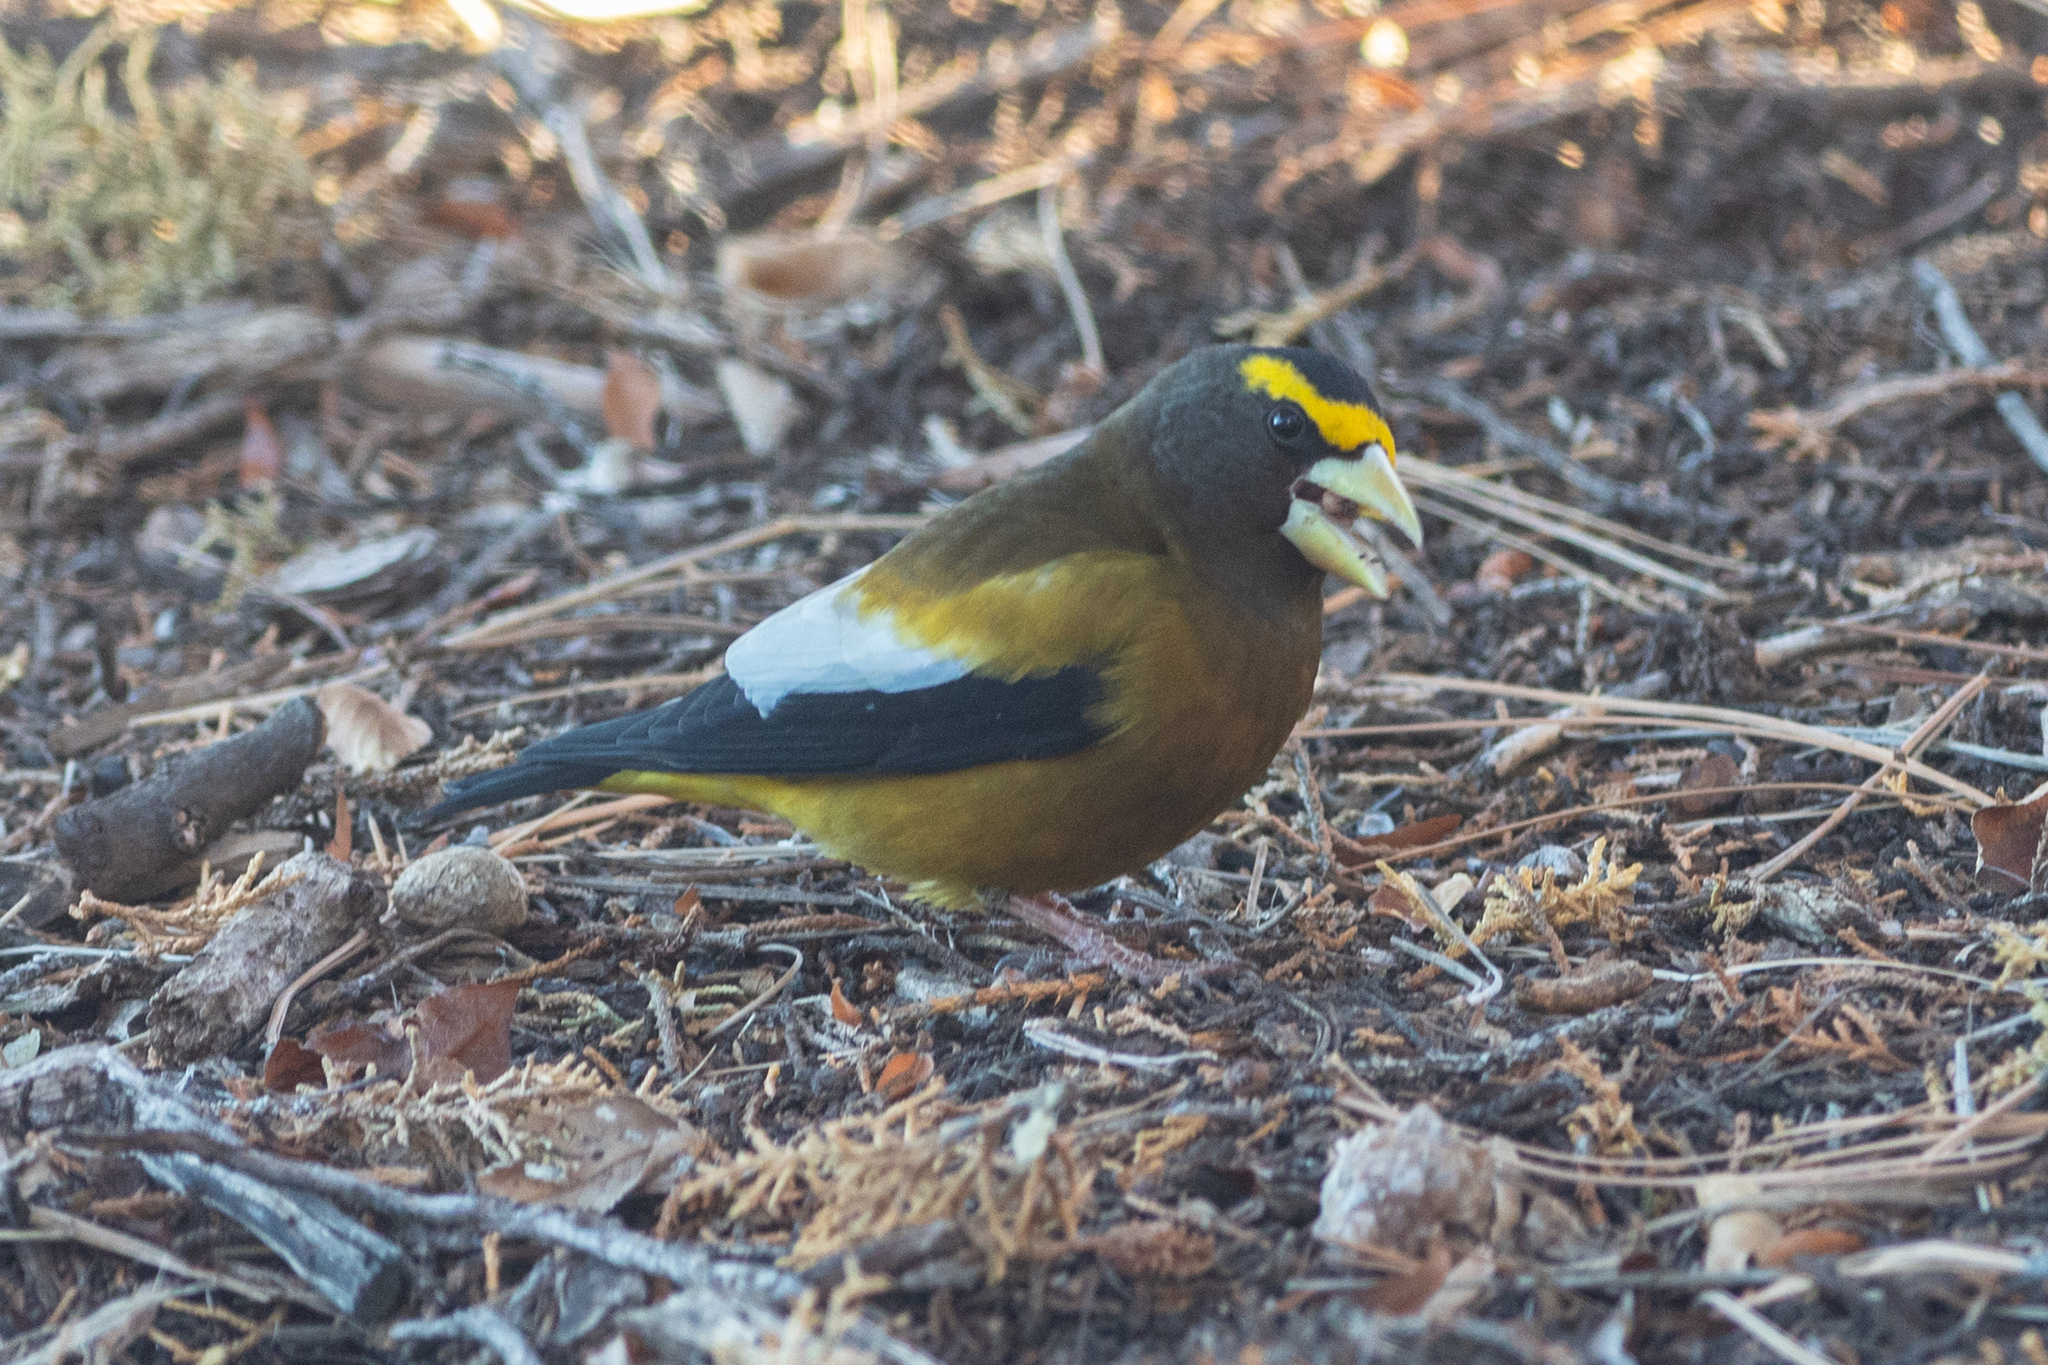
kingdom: Animalia
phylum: Chordata
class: Aves
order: Passeriformes
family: Fringillidae
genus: Hesperiphona
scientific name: Hesperiphona vespertina
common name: Evening grosbeak
